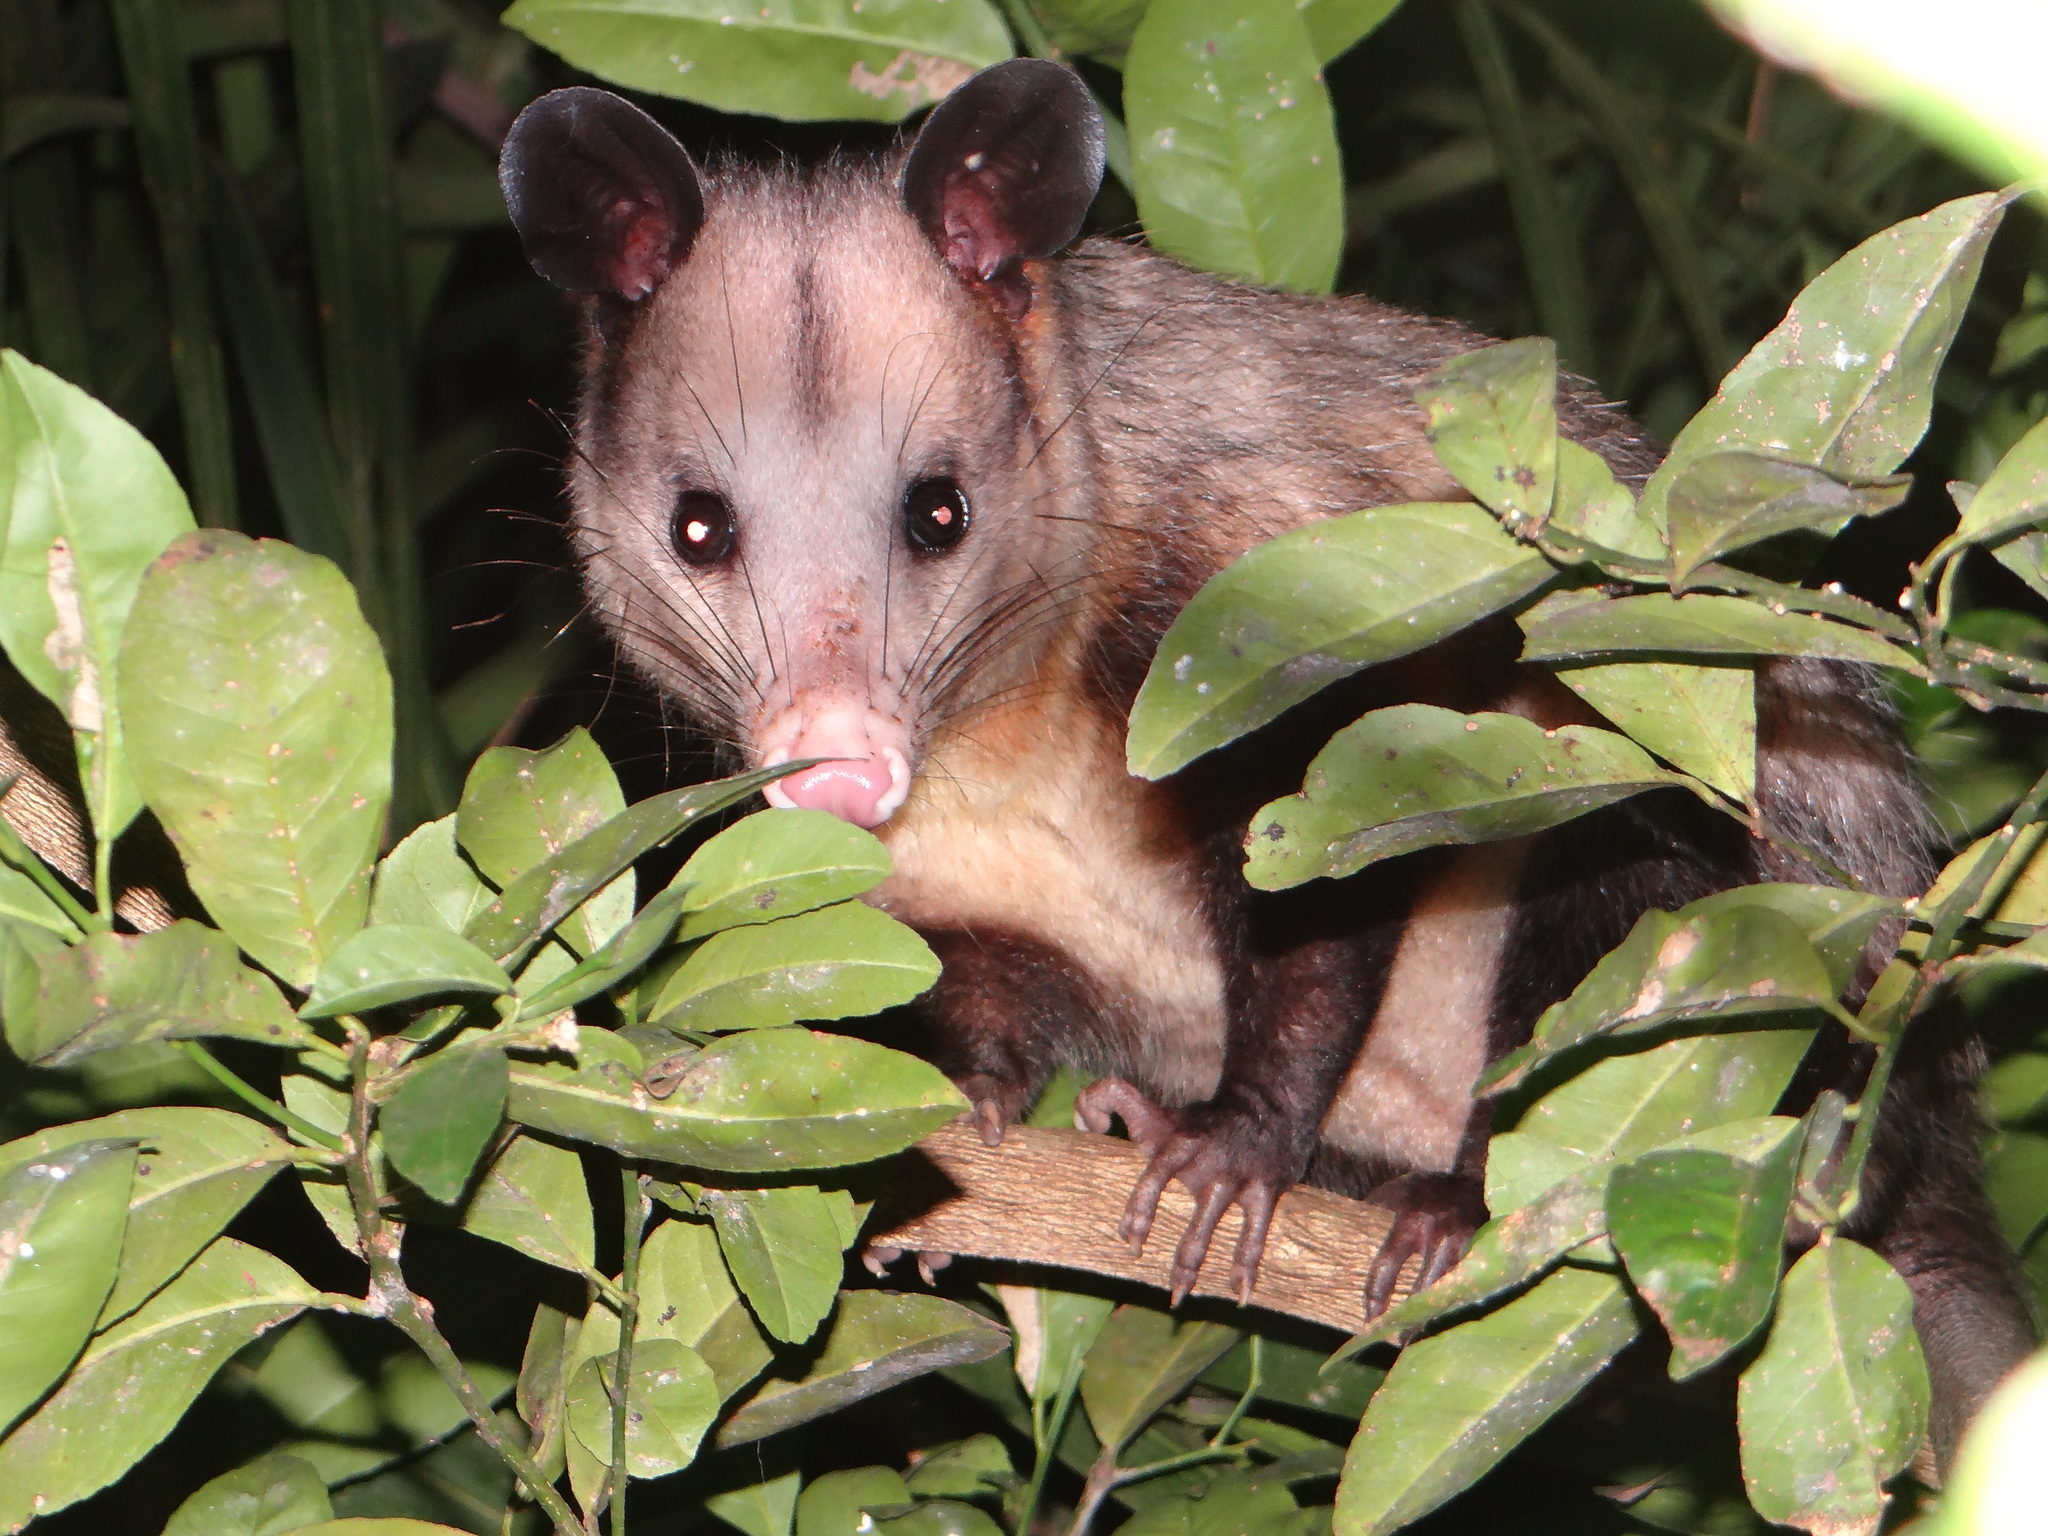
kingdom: Animalia
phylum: Chordata
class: Mammalia
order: Didelphimorphia
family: Didelphidae
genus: Didelphis
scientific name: Didelphis marsupialis
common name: Common opossum
